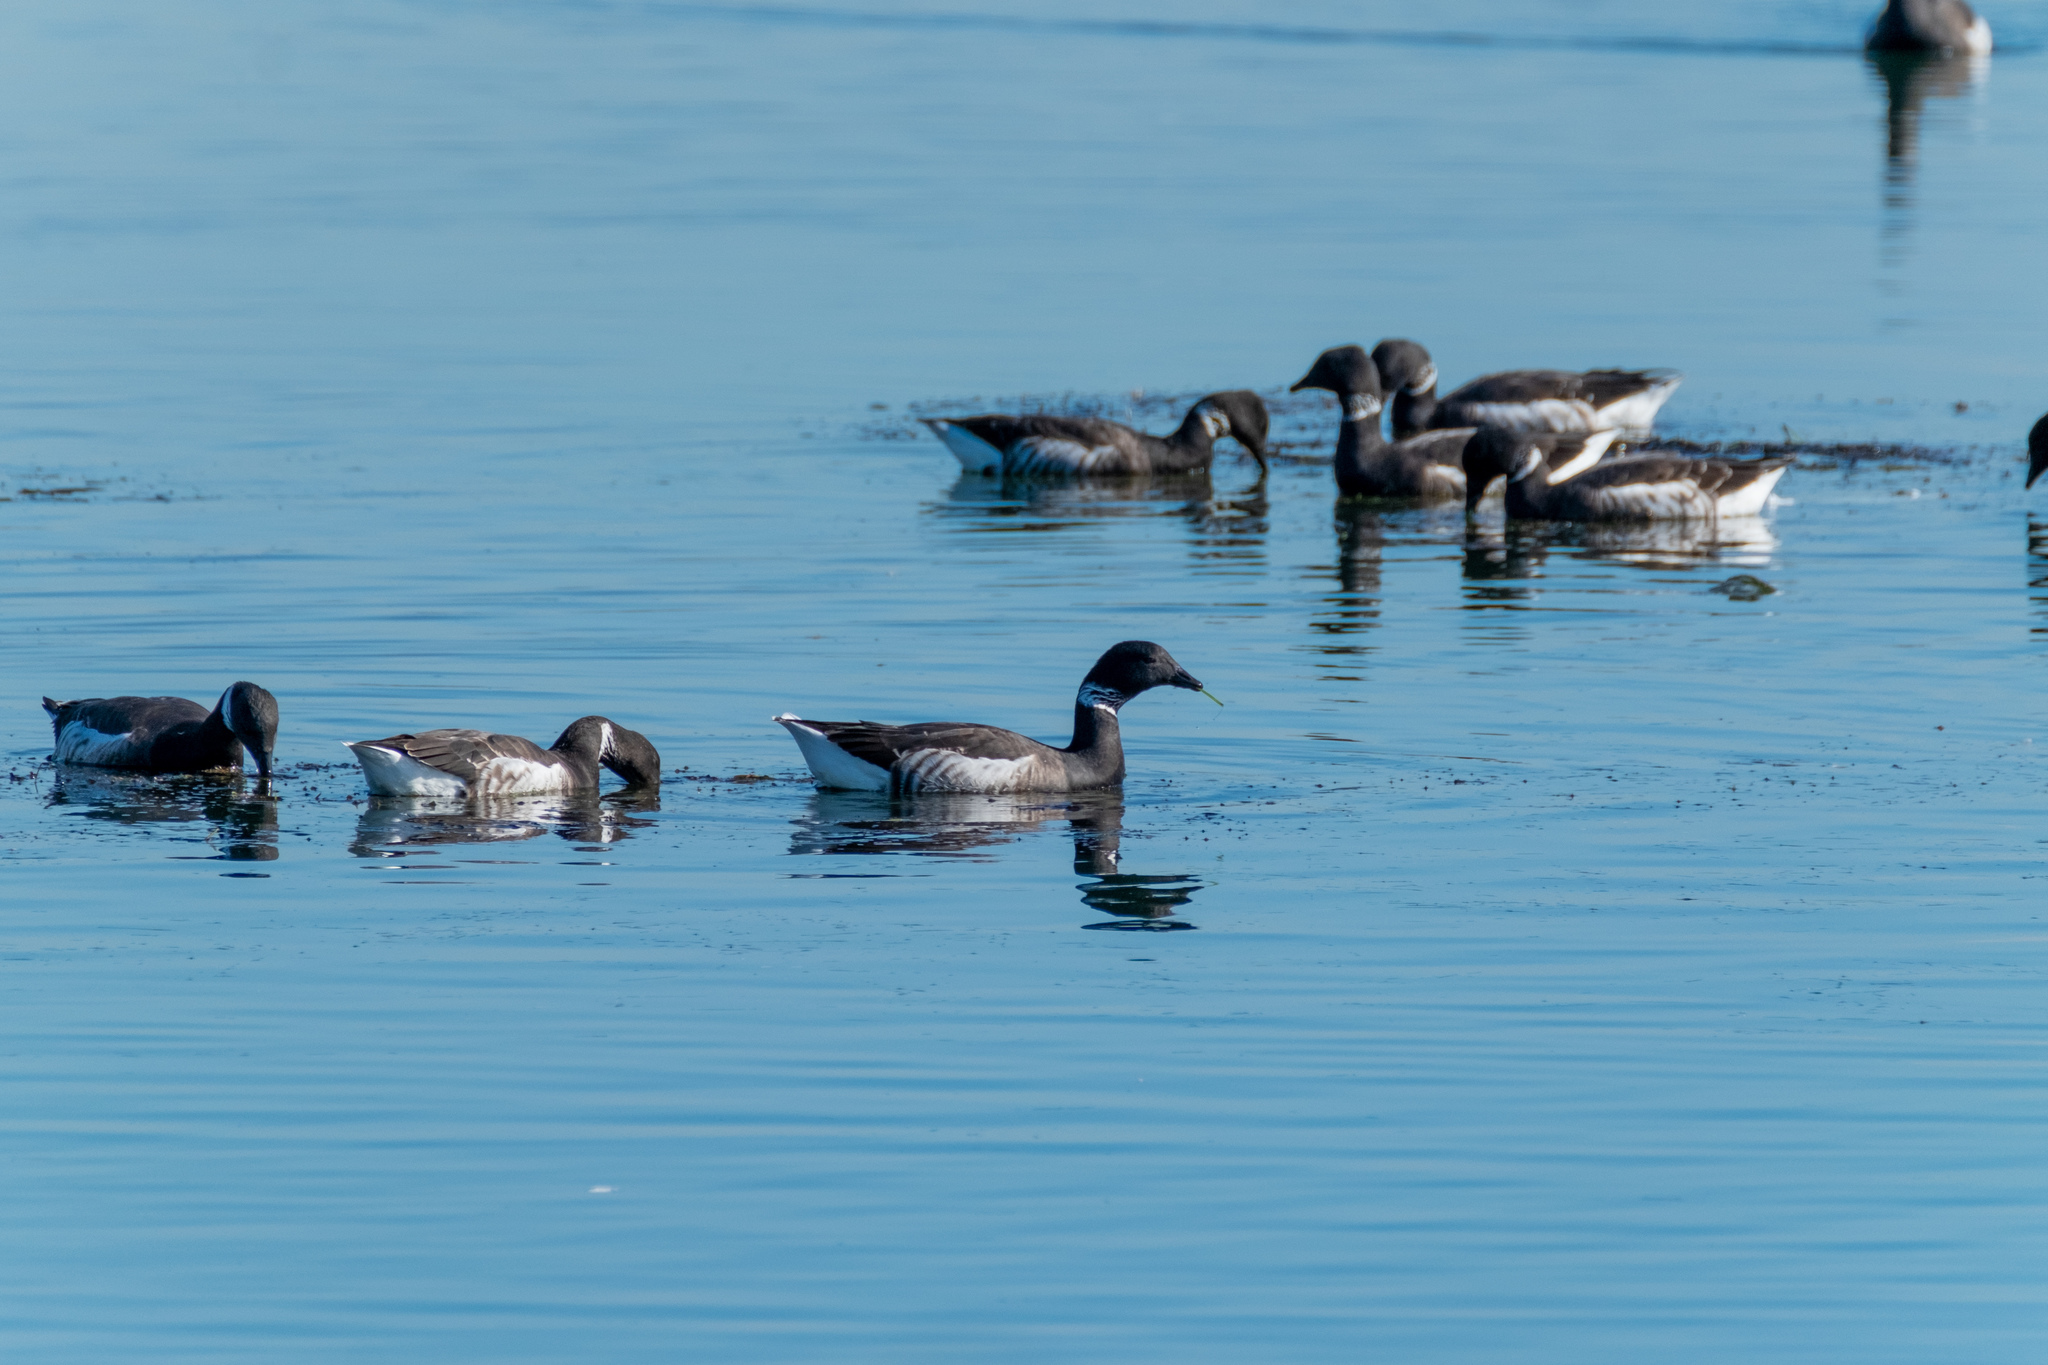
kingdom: Animalia
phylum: Chordata
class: Aves
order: Anseriformes
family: Anatidae
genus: Branta
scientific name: Branta bernicla
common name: Brant goose
